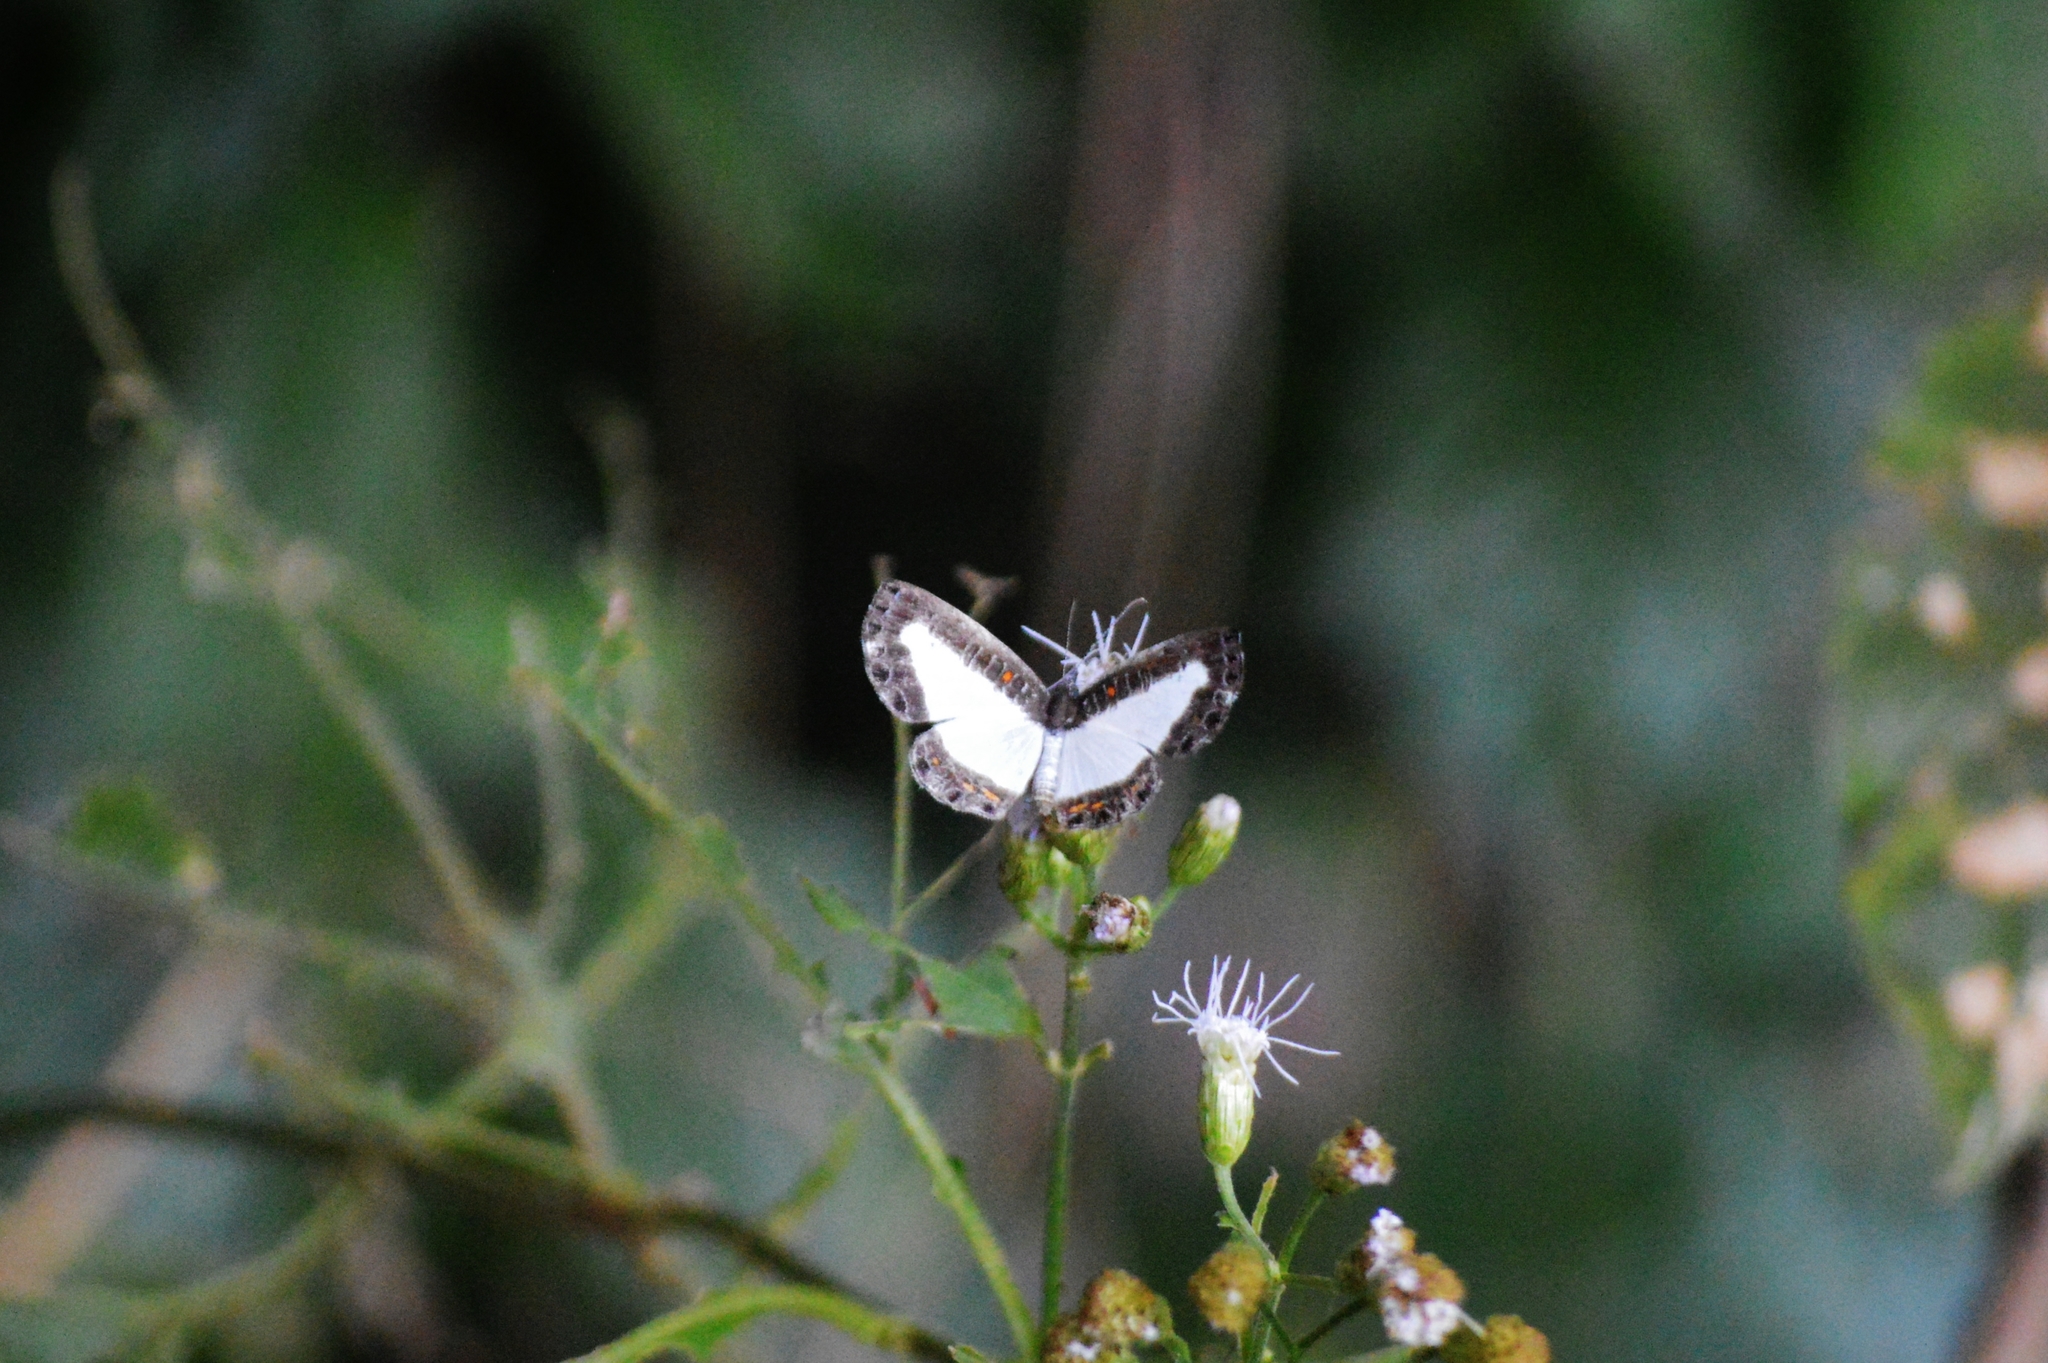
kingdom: Animalia
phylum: Arthropoda
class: Insecta
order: Lepidoptera
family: Riodinidae
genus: Calociasma
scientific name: Calociasma lilina
